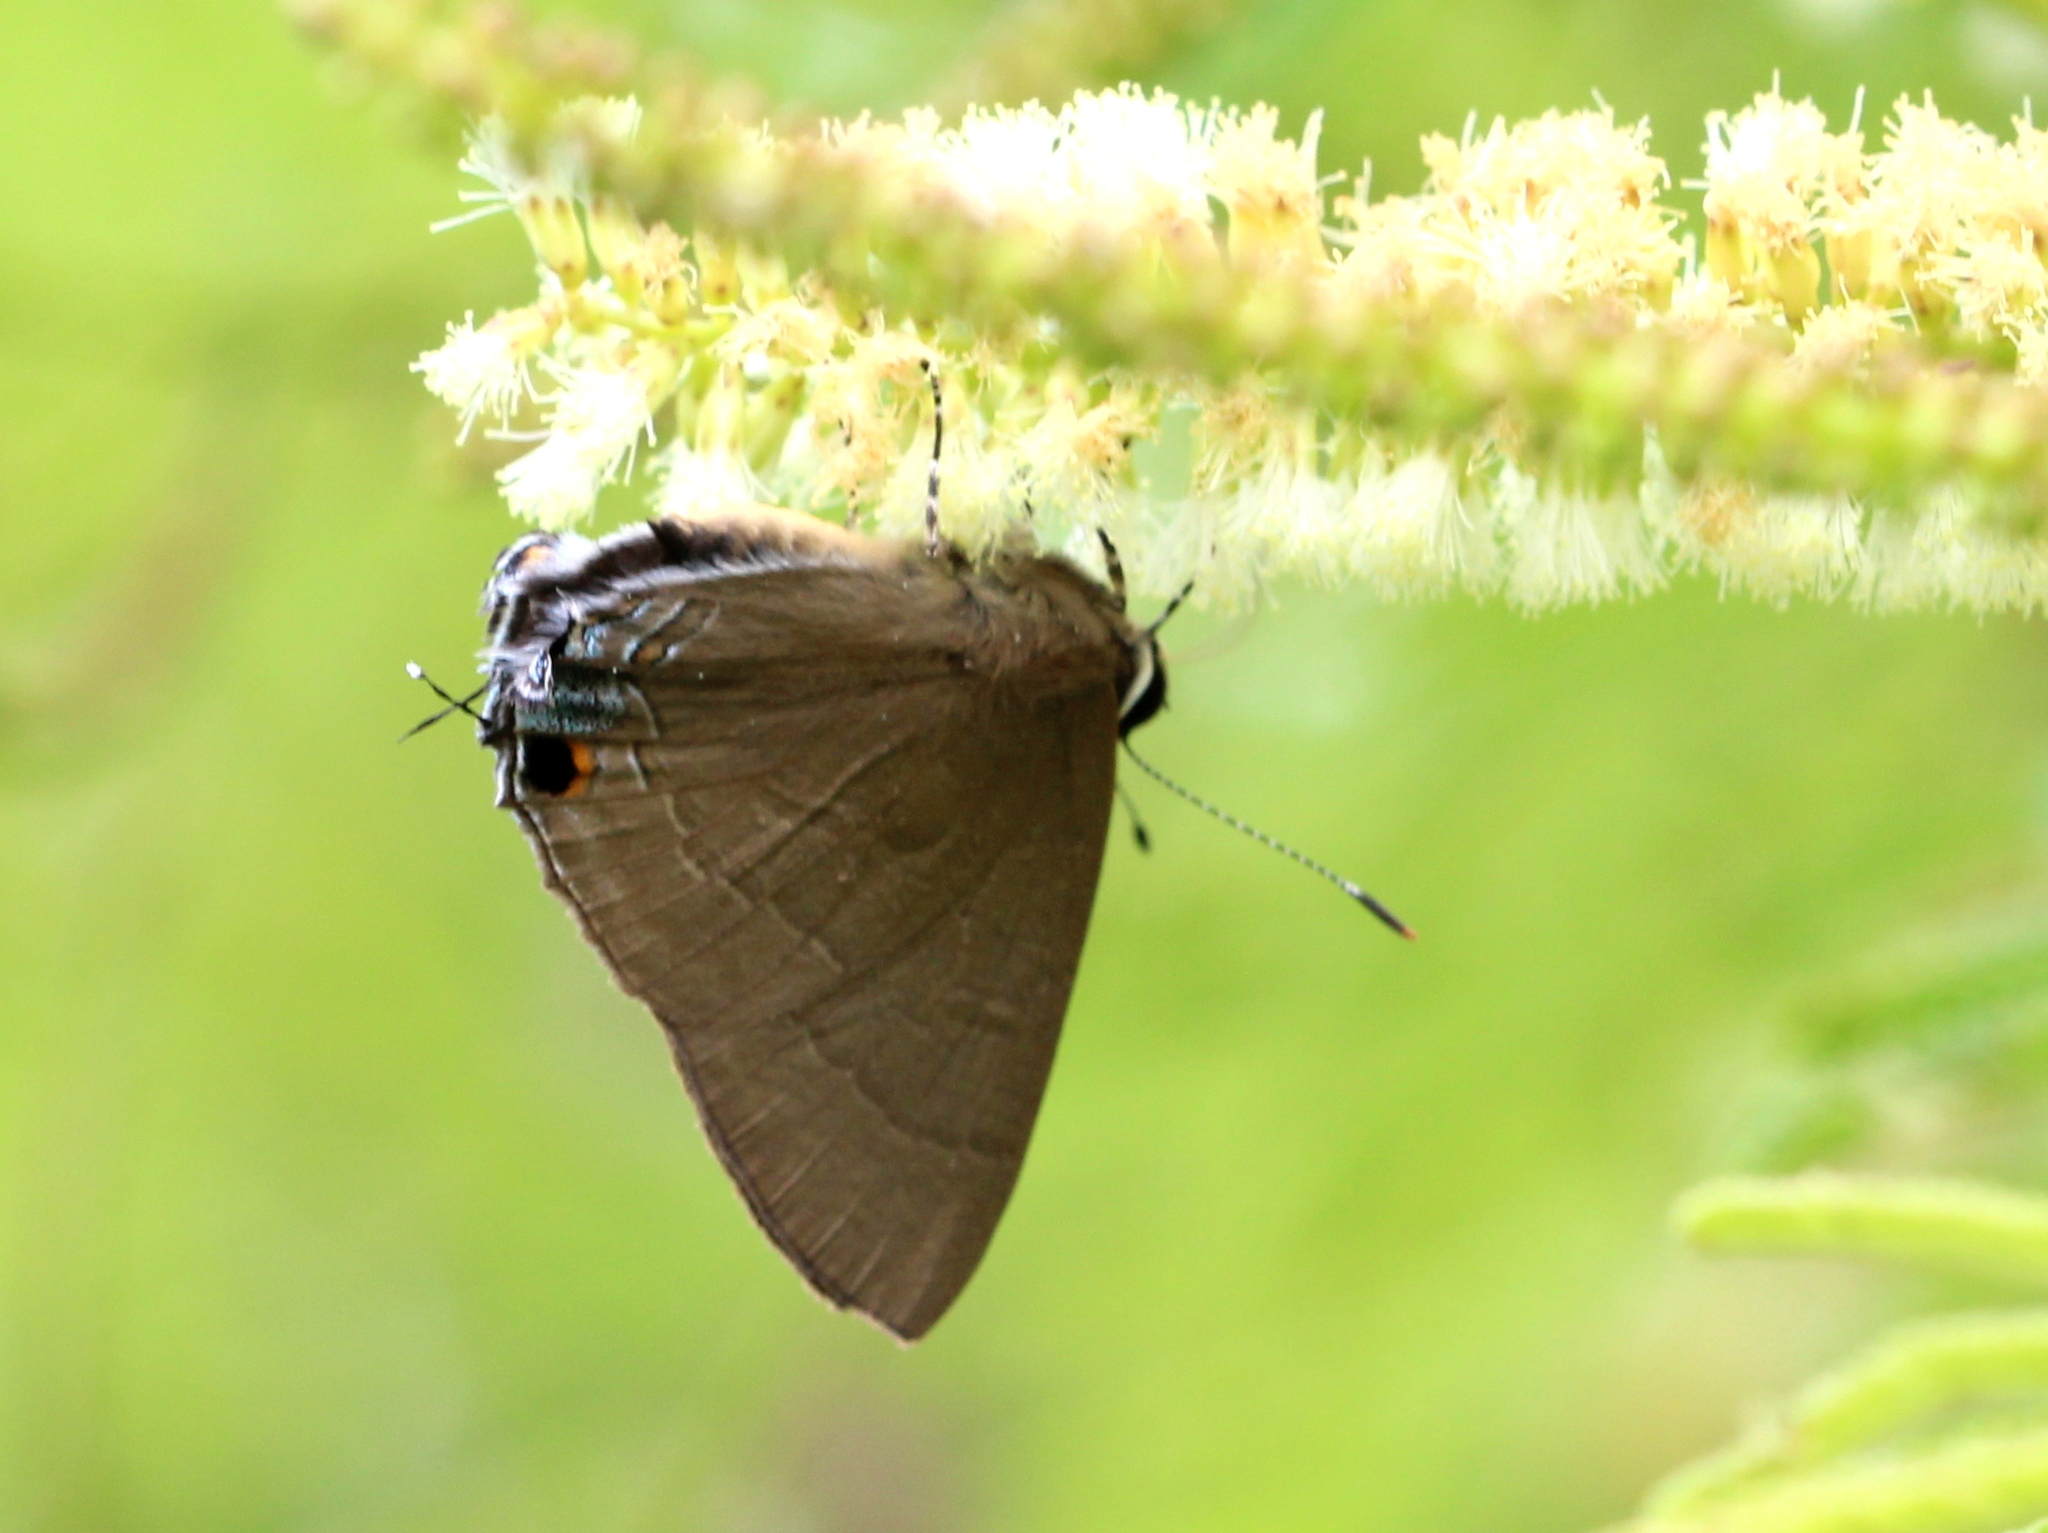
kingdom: Animalia
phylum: Arthropoda
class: Insecta
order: Lepidoptera
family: Lycaenidae
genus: Rapala
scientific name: Rapala manea
